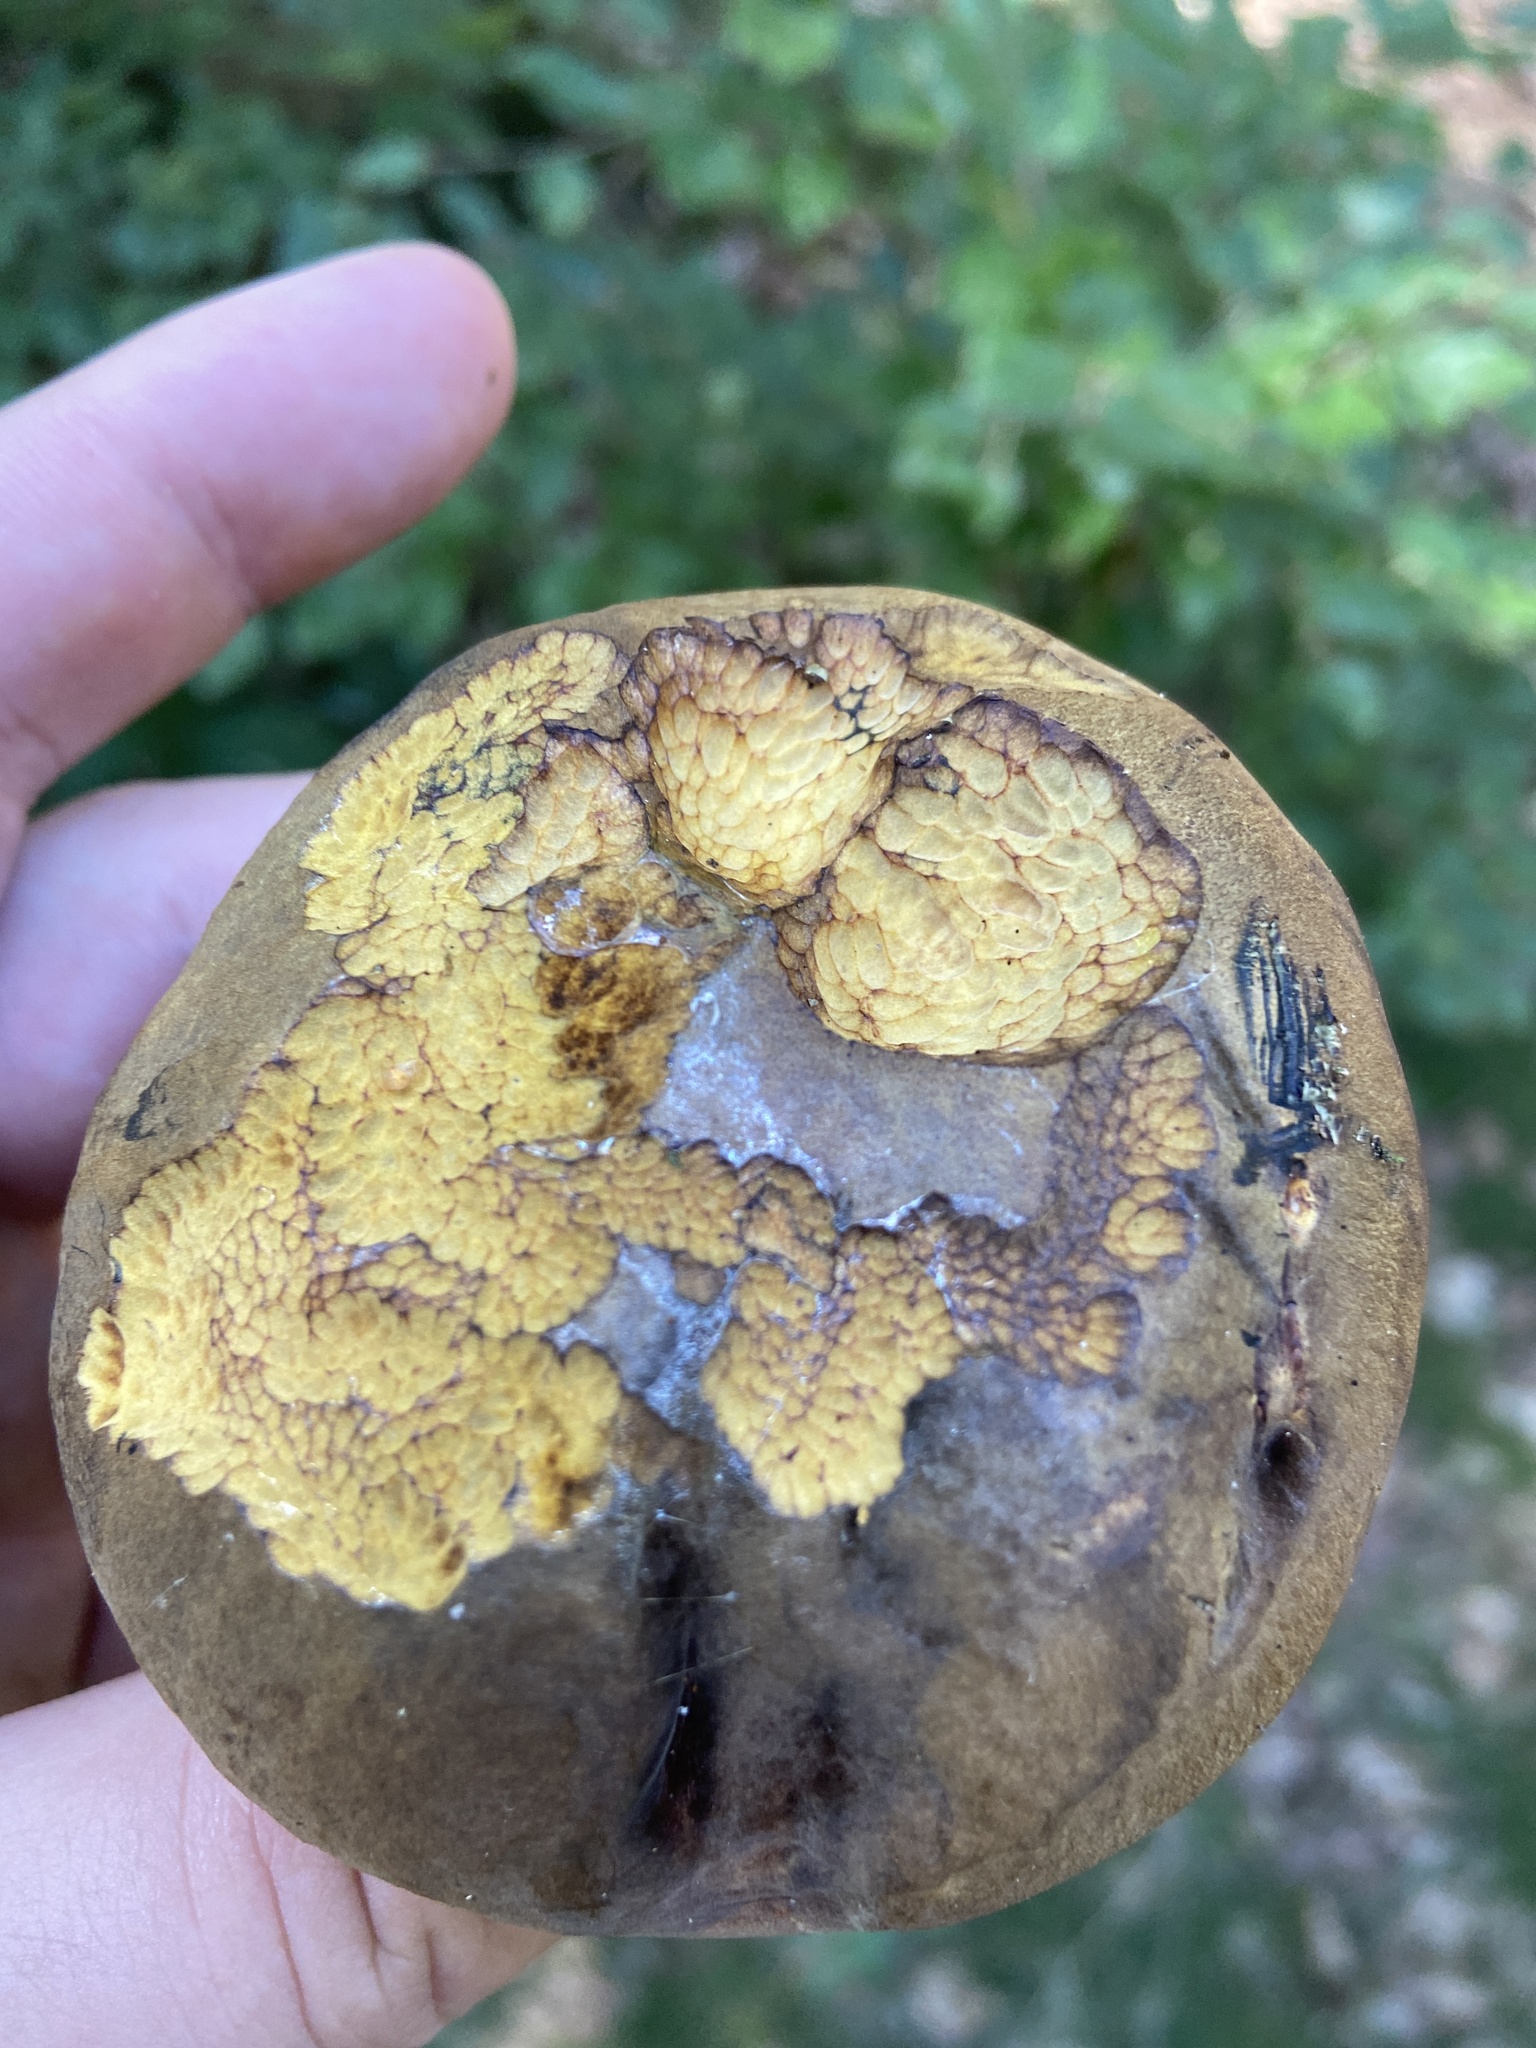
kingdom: Fungi
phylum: Basidiomycota
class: Agaricomycetes
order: Boletales
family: Boletaceae
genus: Neoboletus
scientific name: Neoboletus luridiformis
